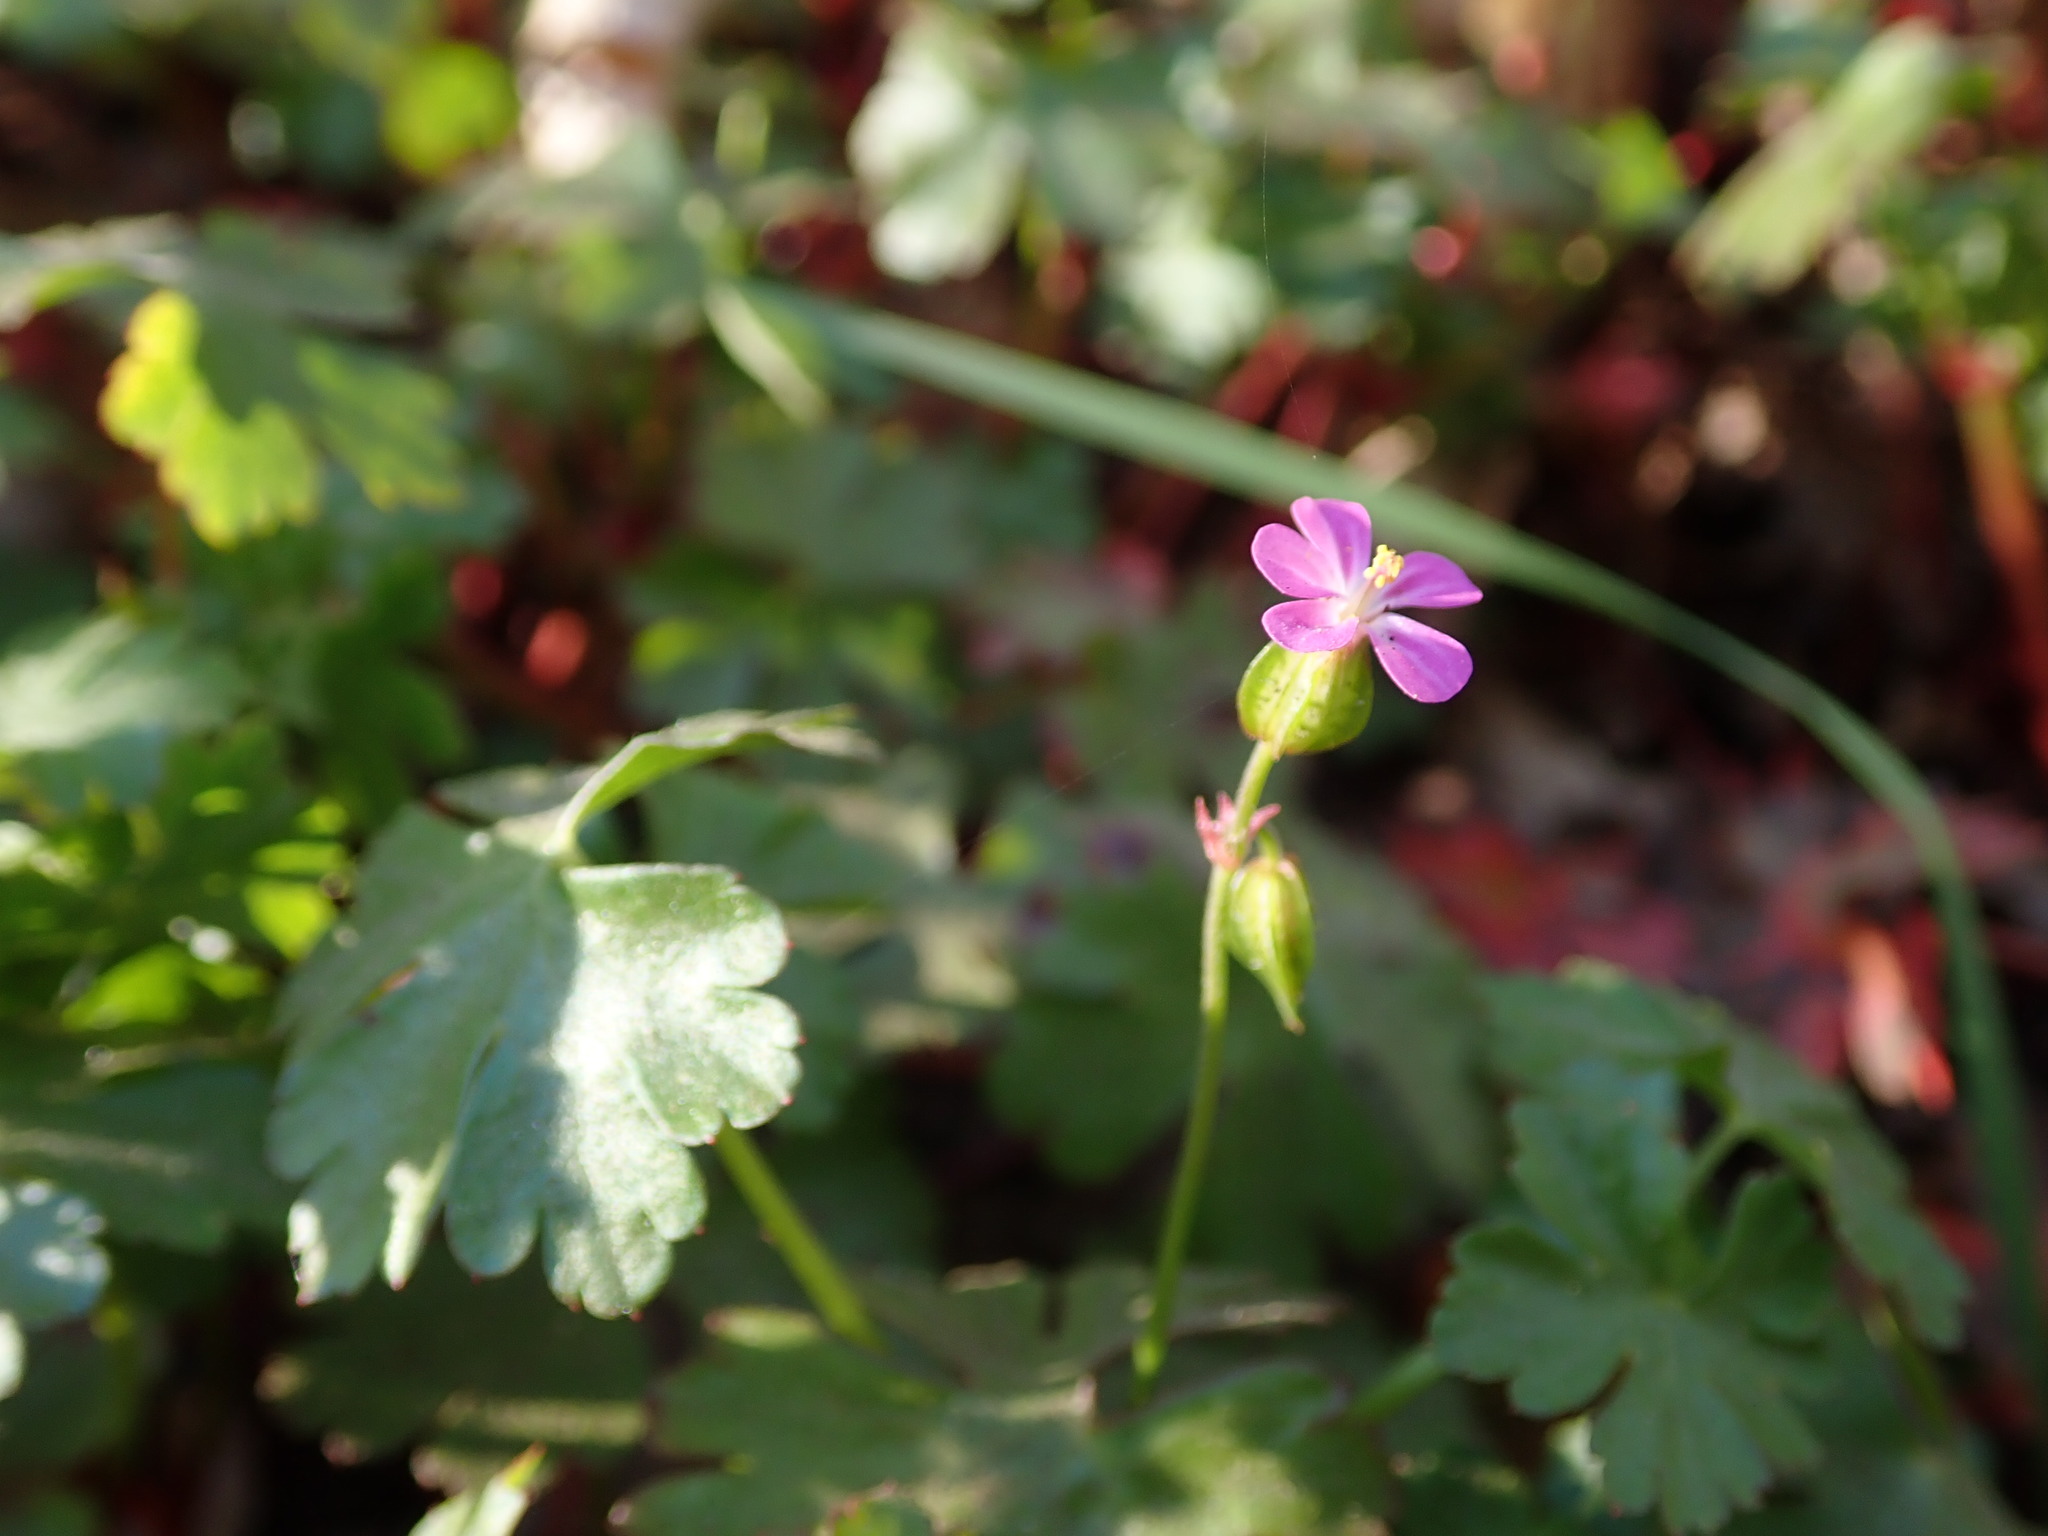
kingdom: Plantae
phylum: Tracheophyta
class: Magnoliopsida
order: Geraniales
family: Geraniaceae
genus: Geranium
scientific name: Geranium lucidum
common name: Shining crane's-bill
